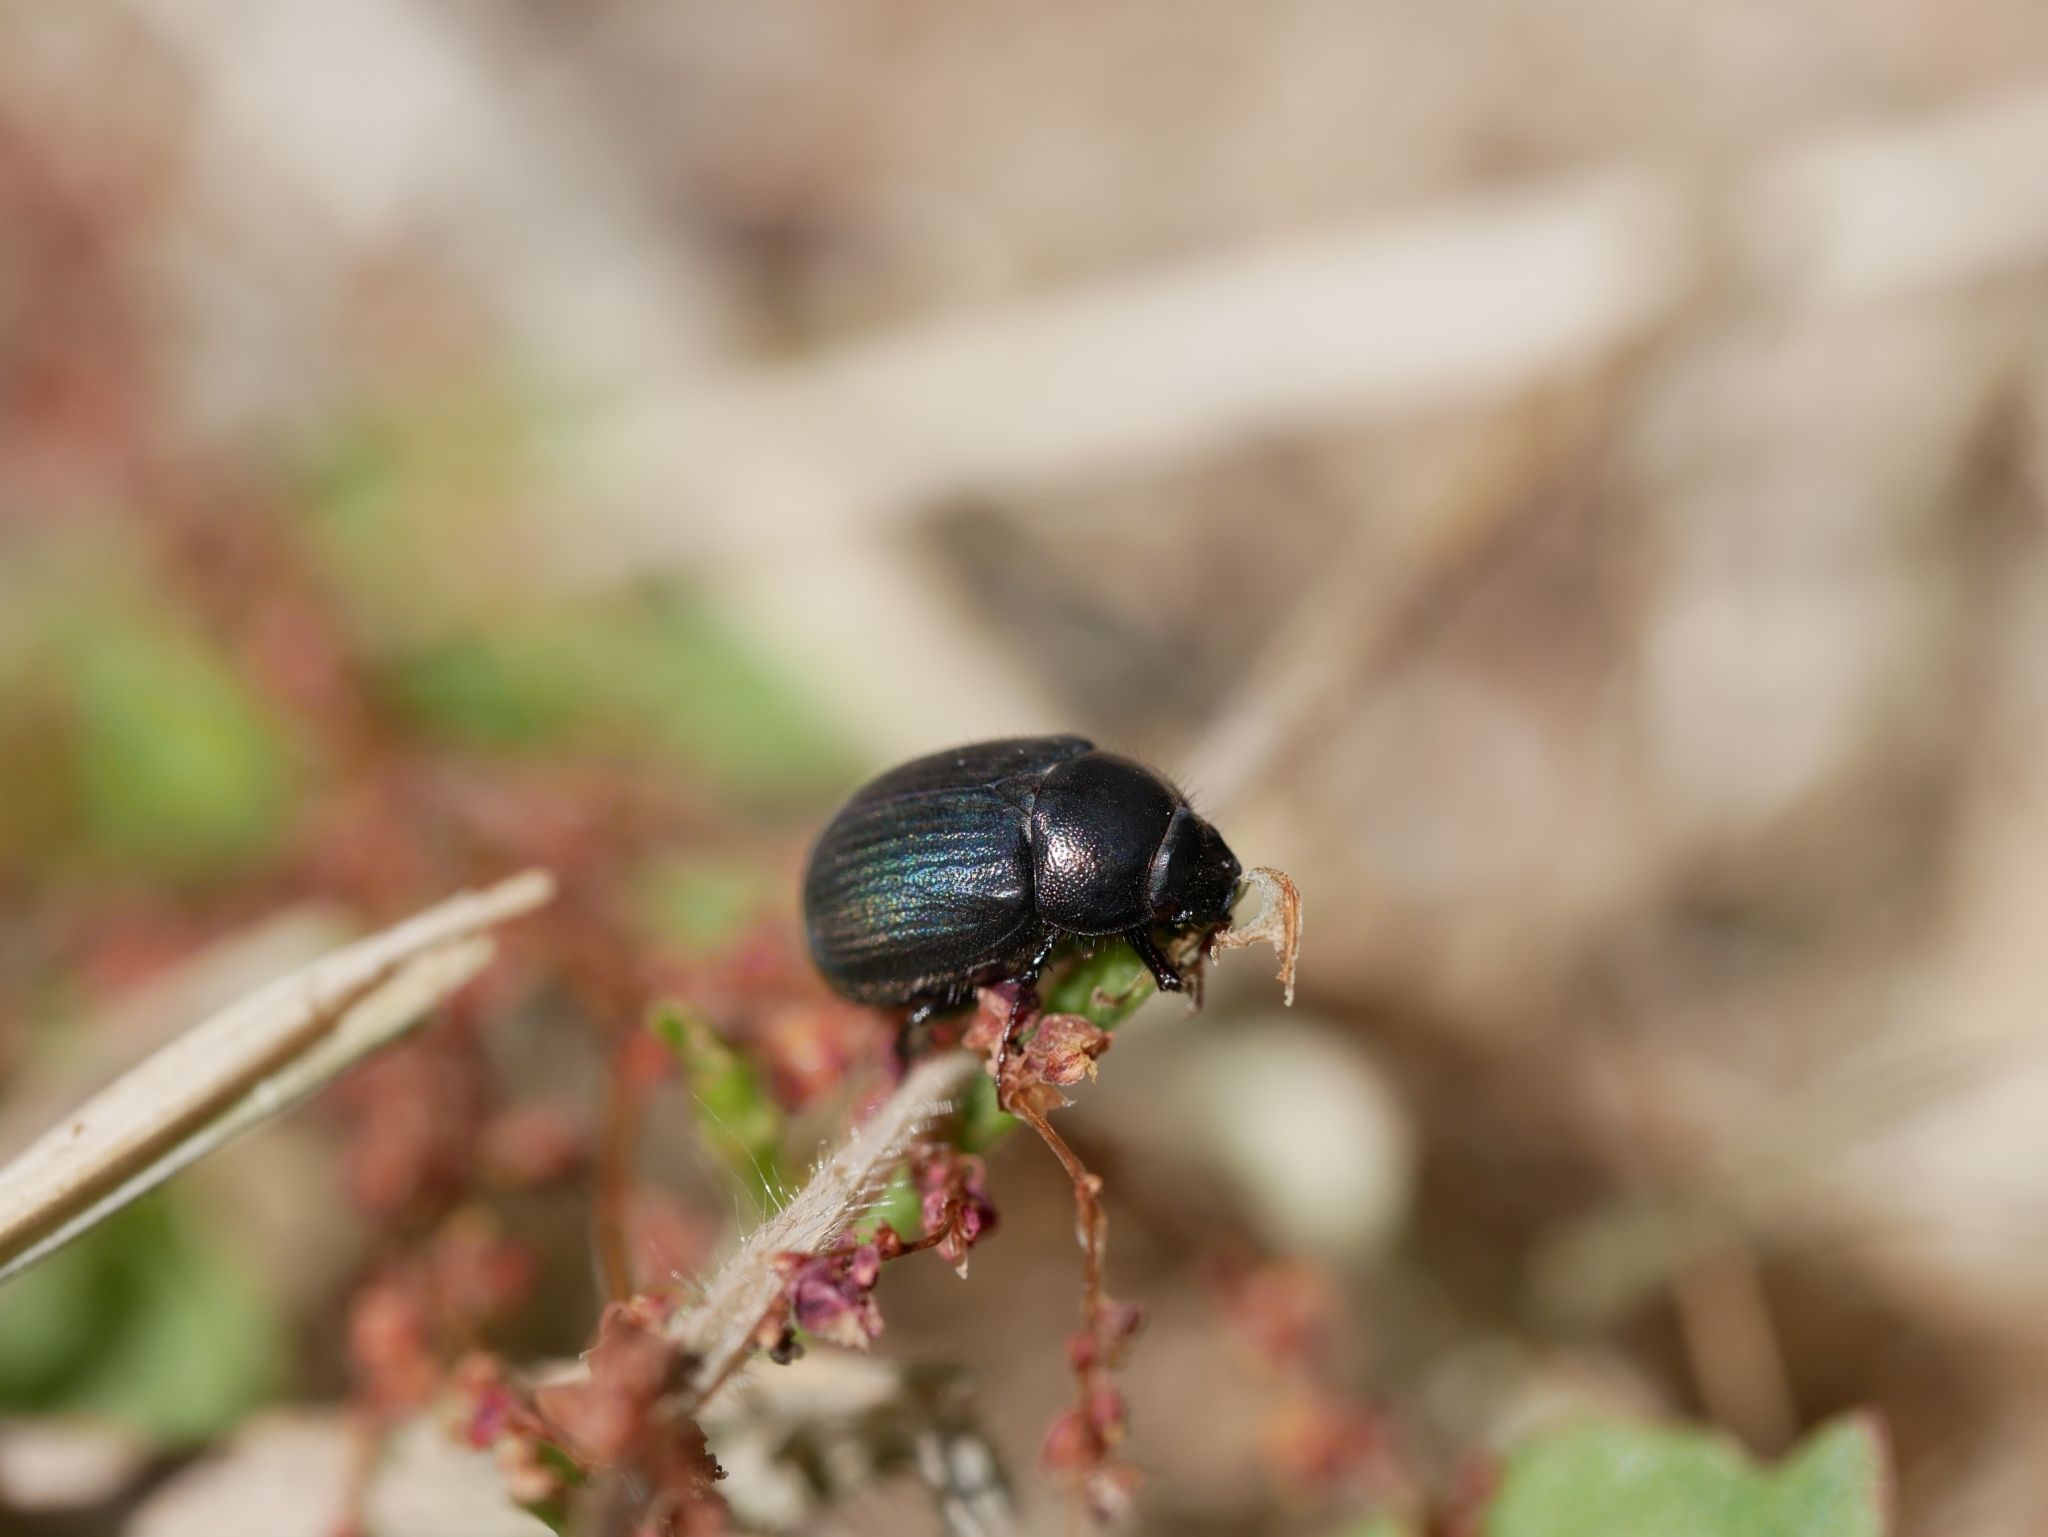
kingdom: Animalia
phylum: Arthropoda
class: Insecta
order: Coleoptera
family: Scarabaeidae
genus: Serica
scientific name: Serica anthracina
